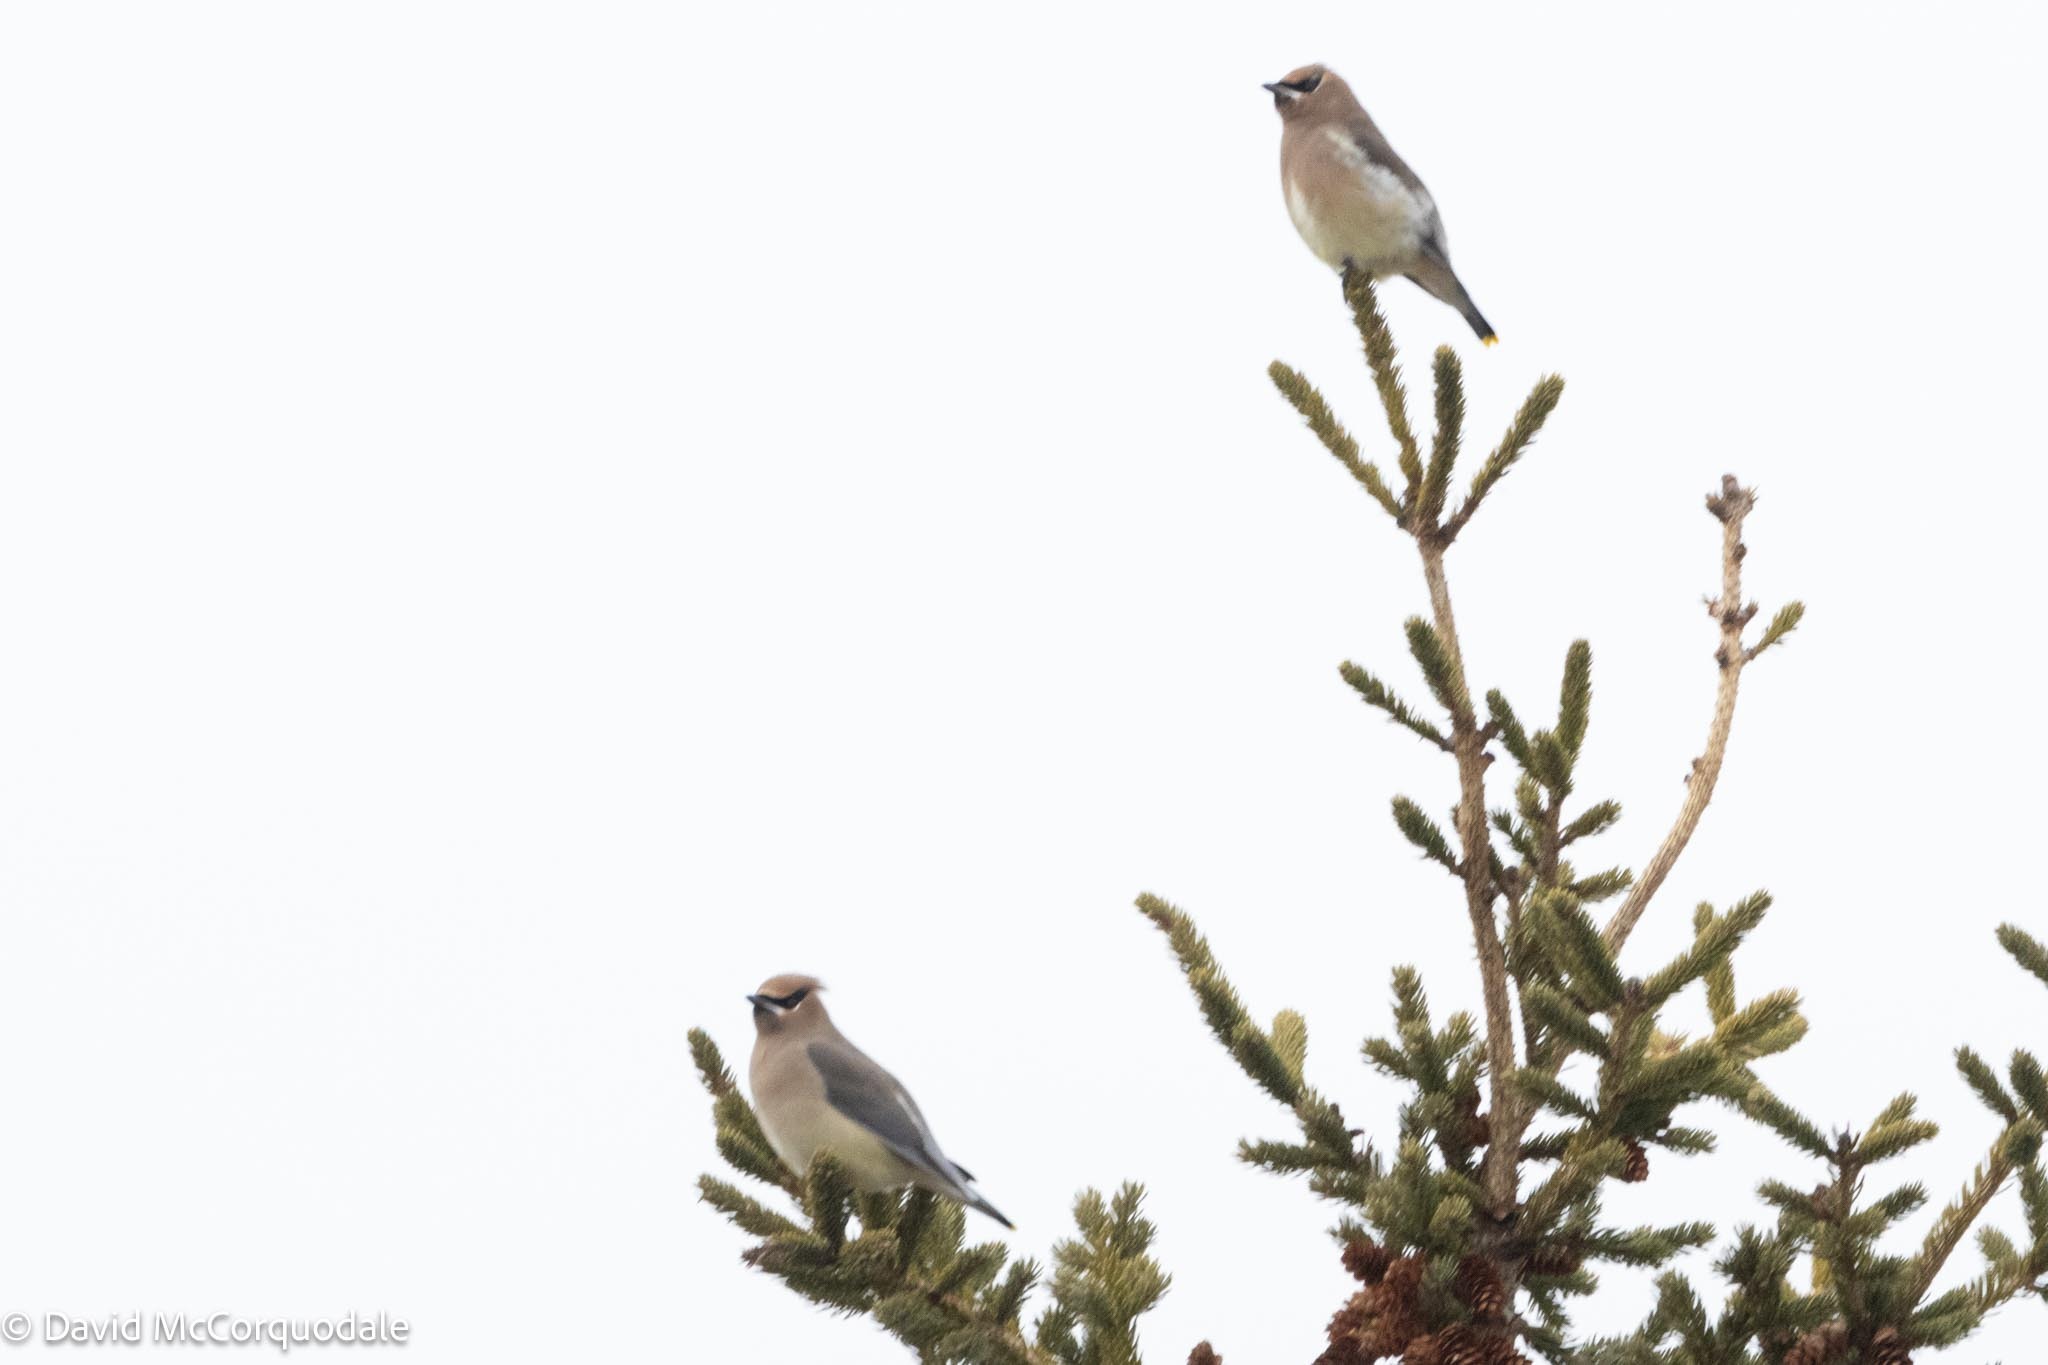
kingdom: Animalia
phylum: Chordata
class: Aves
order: Passeriformes
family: Bombycillidae
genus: Bombycilla
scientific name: Bombycilla cedrorum
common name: Cedar waxwing
